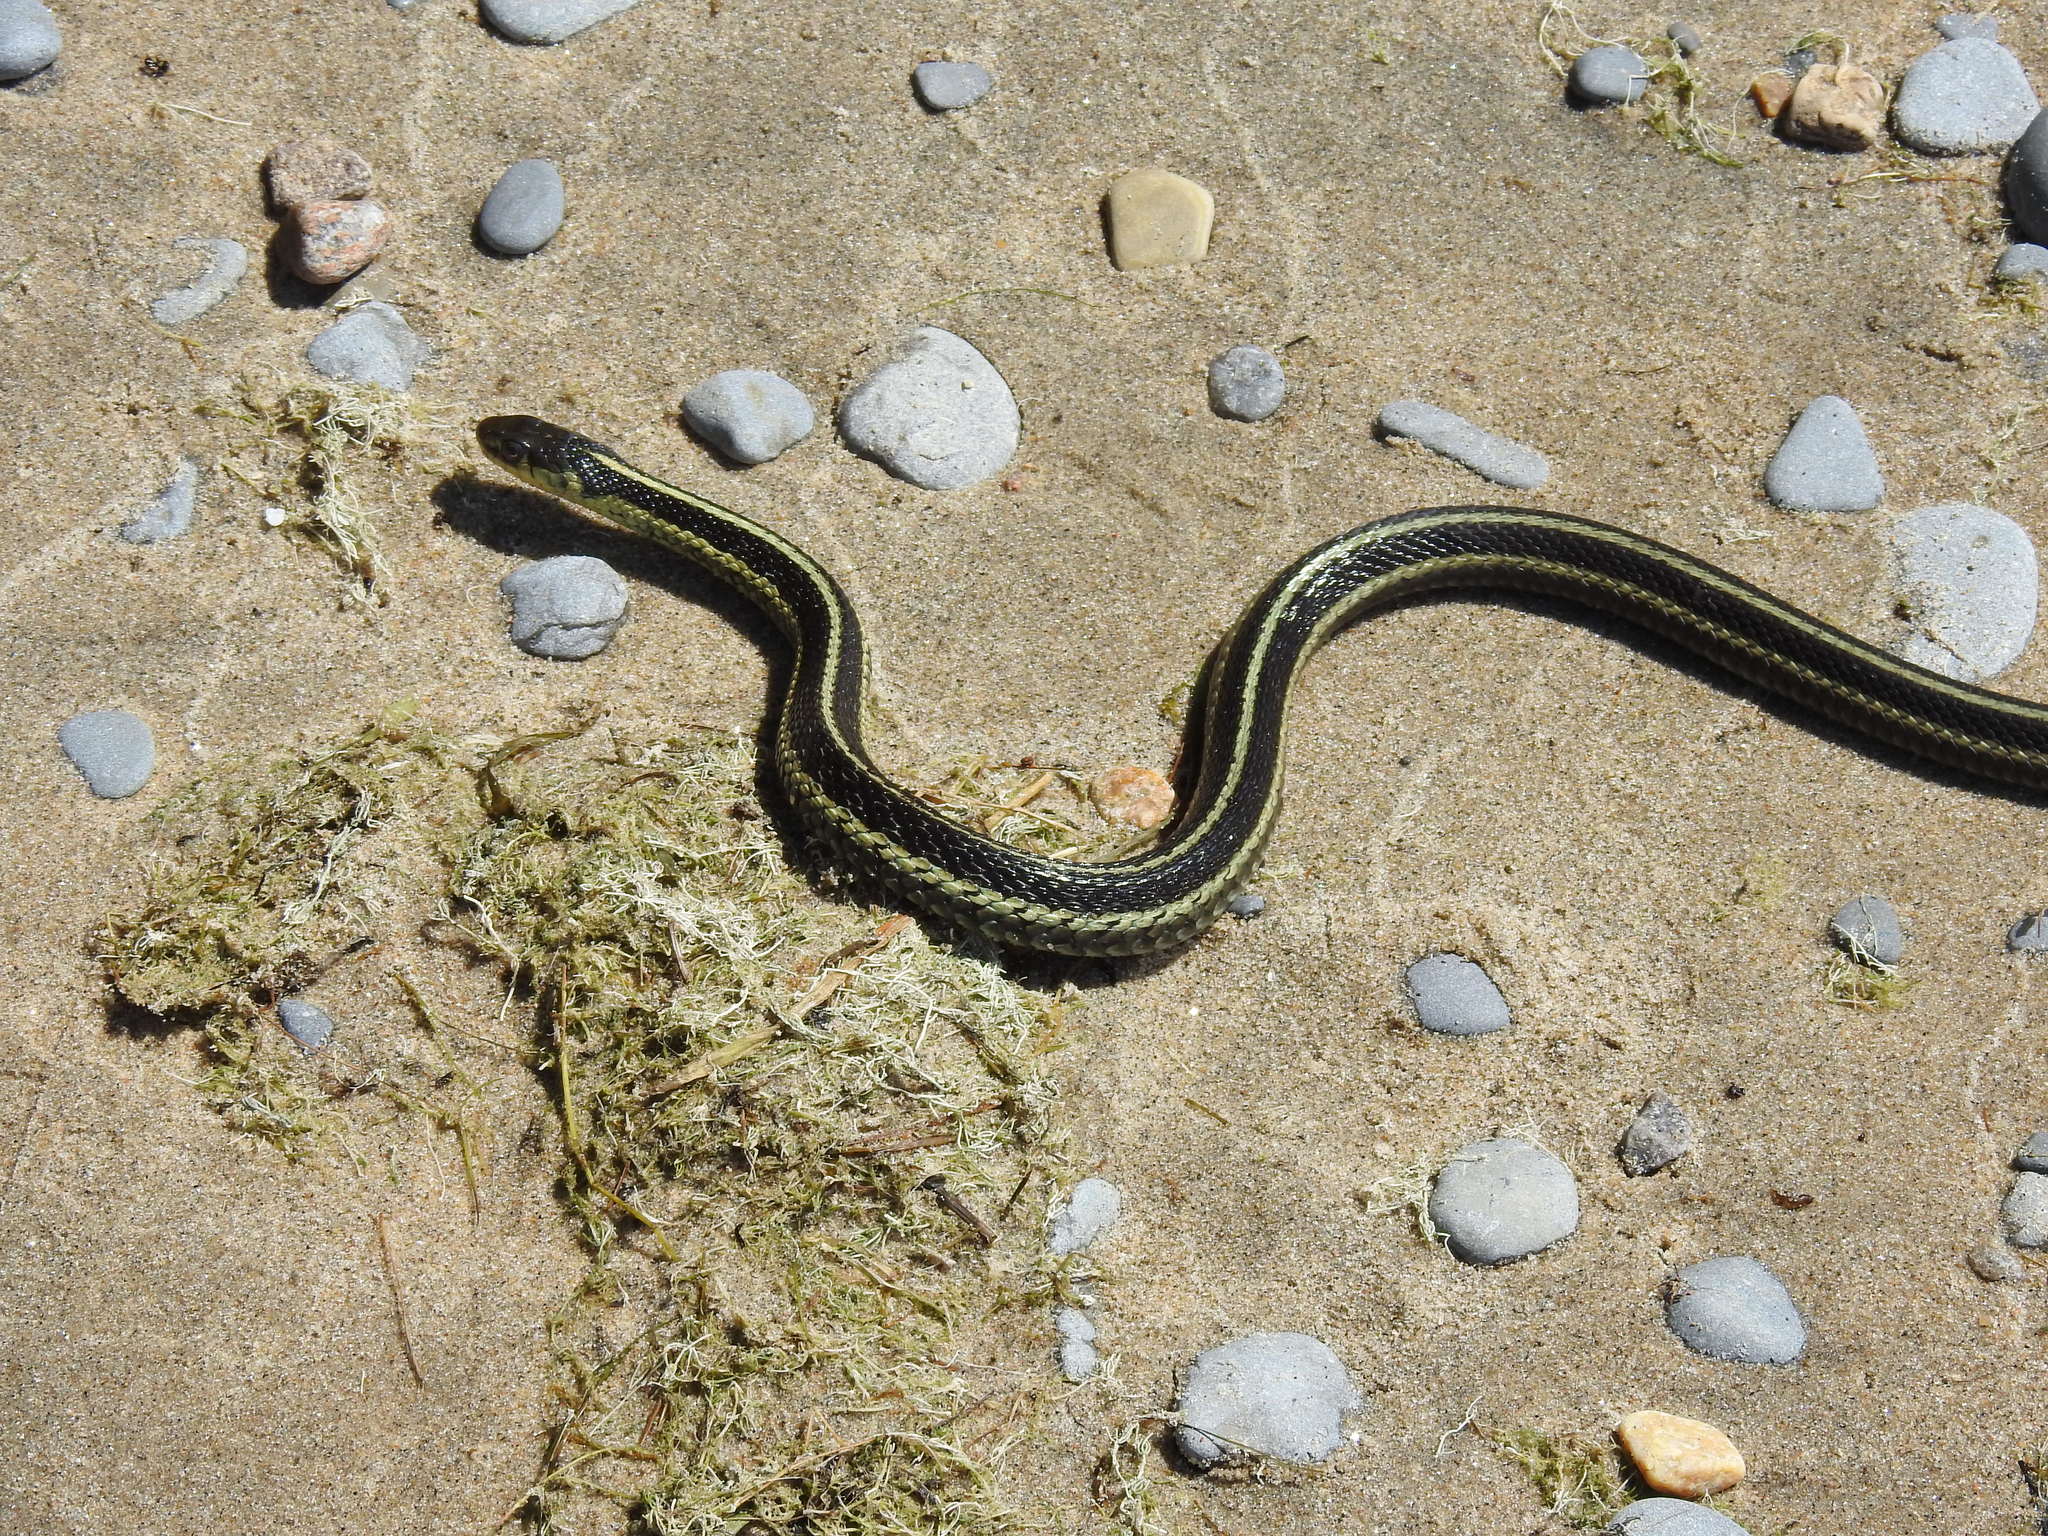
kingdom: Animalia
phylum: Chordata
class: Squamata
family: Colubridae
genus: Thamnophis
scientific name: Thamnophis sirtalis
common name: Common garter snake
